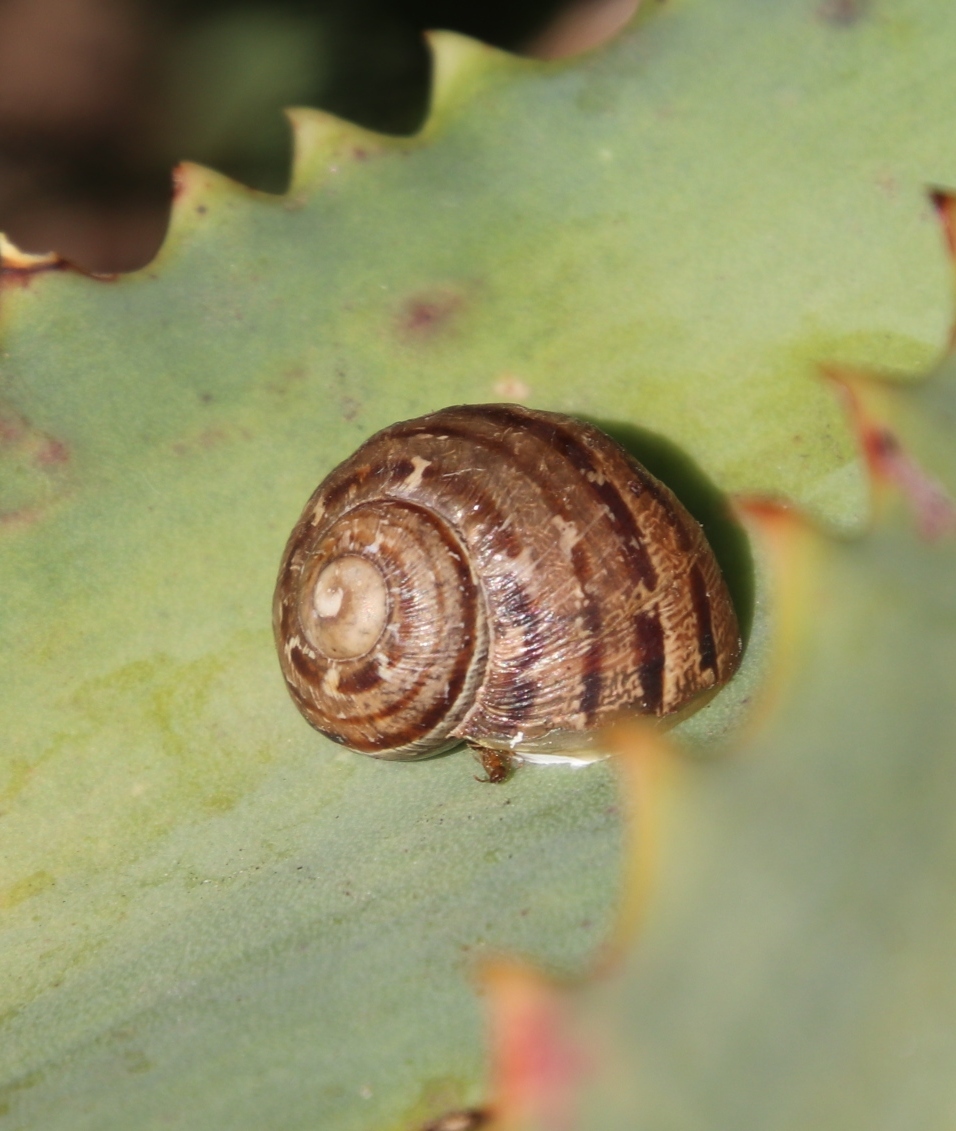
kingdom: Animalia
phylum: Mollusca
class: Gastropoda
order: Stylommatophora
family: Helicidae
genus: Cornu
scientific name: Cornu aspersum
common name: Brown garden snail
